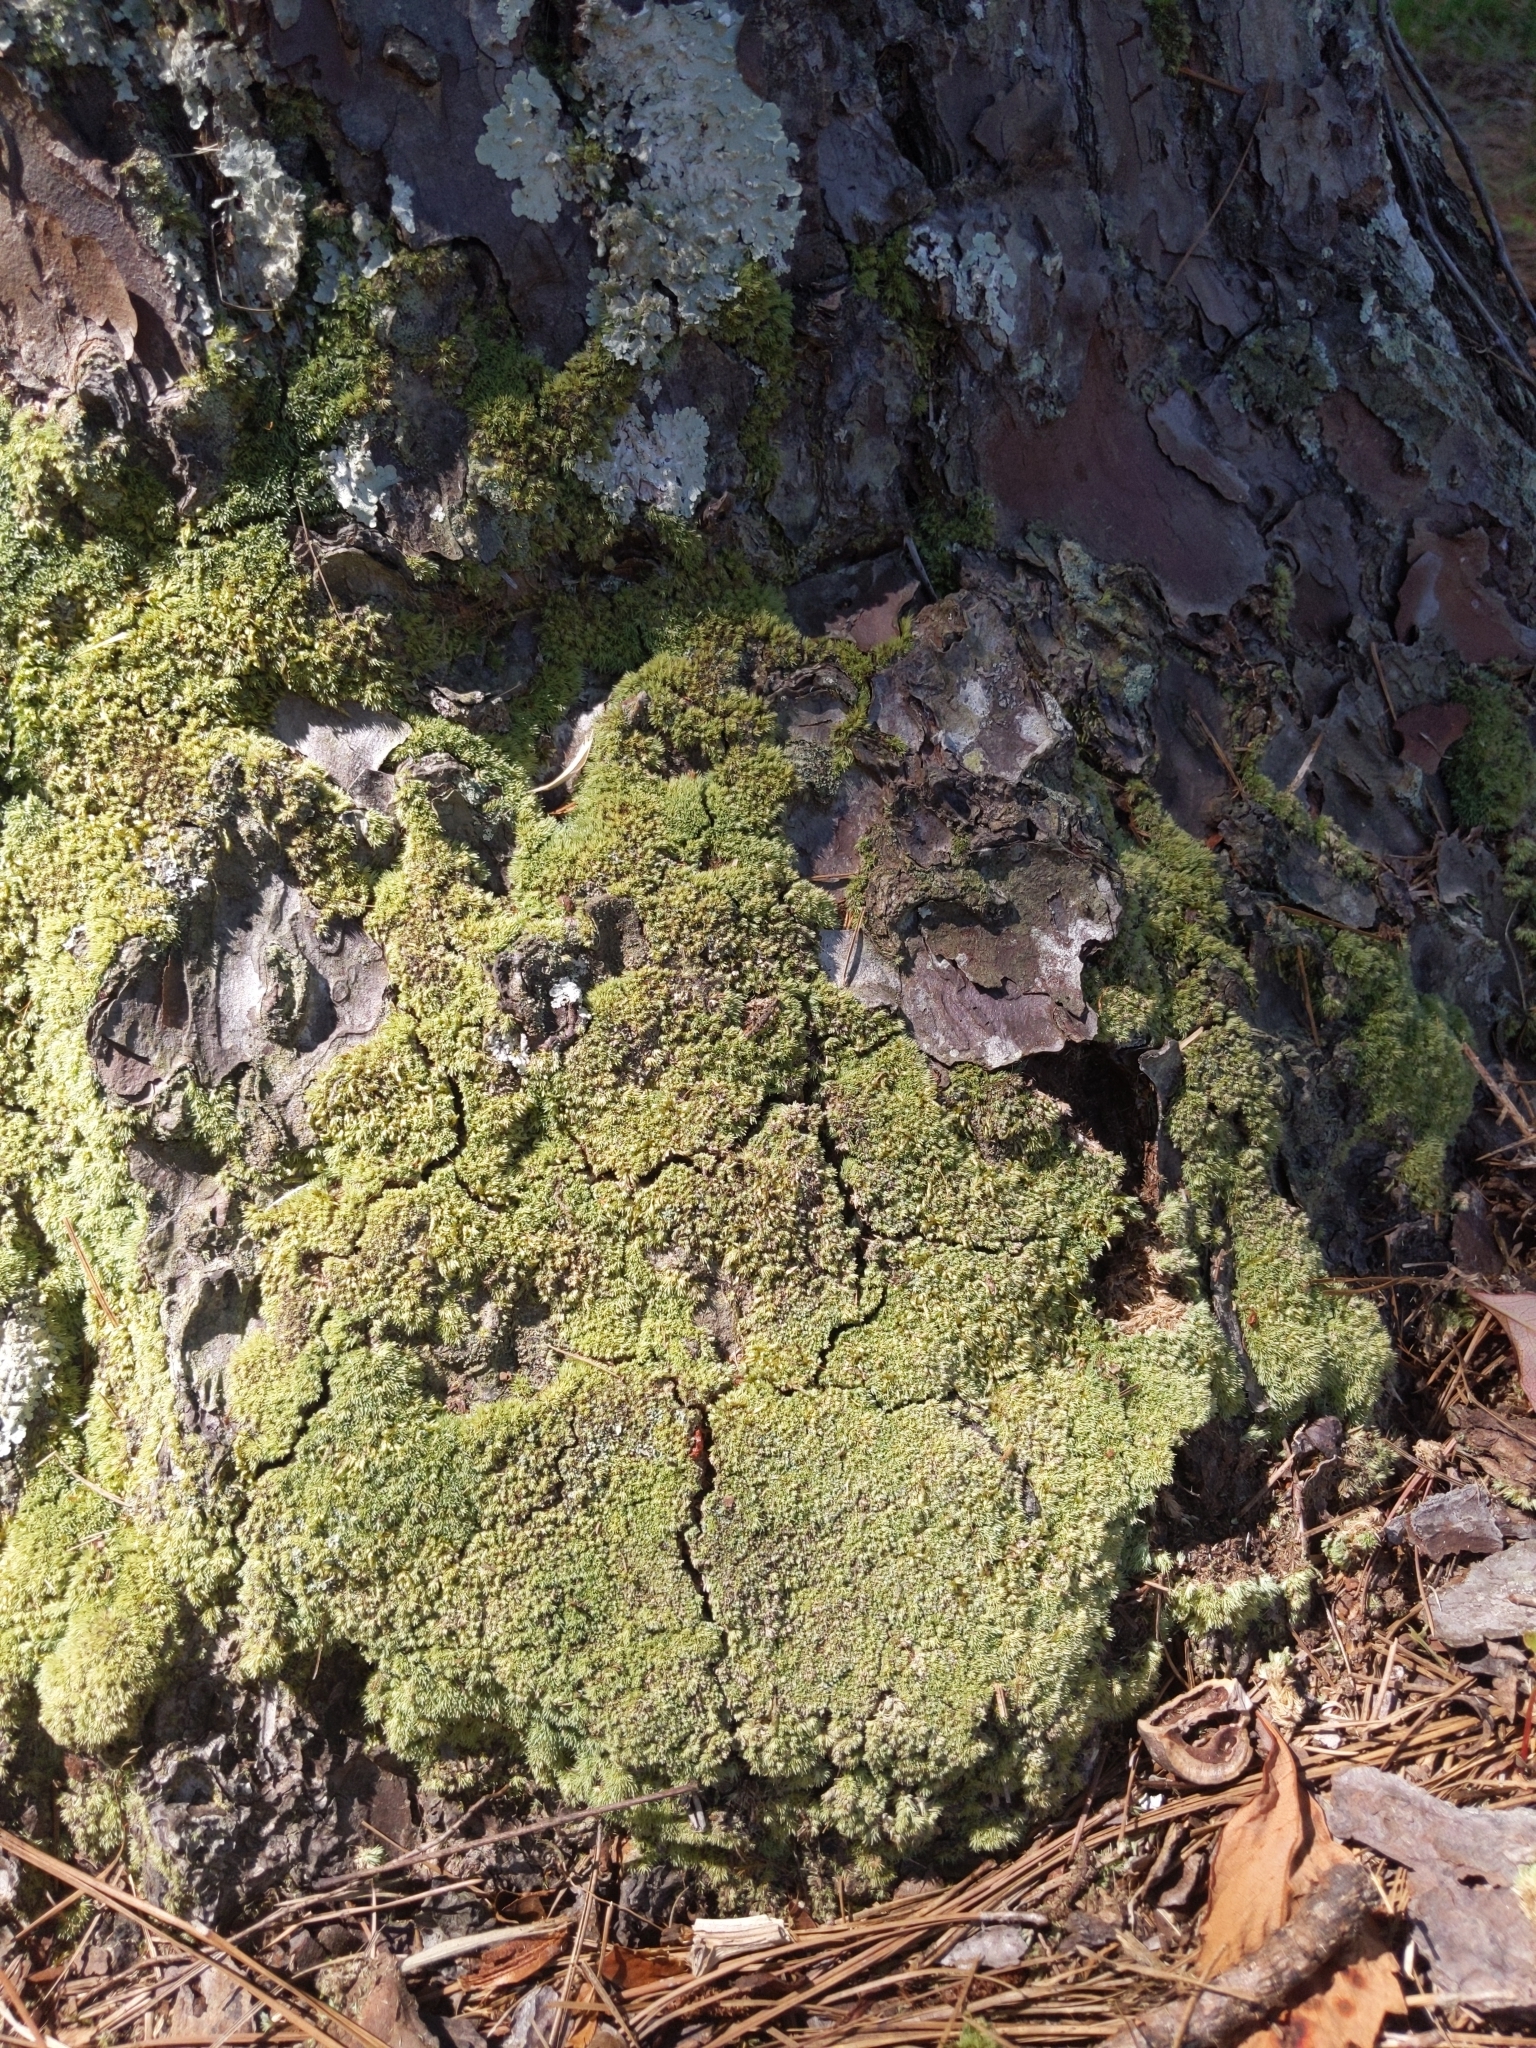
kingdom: Plantae
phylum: Bryophyta
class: Bryopsida
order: Dicranales
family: Leucobryaceae
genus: Leucobryum
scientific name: Leucobryum albidum
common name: White moss
